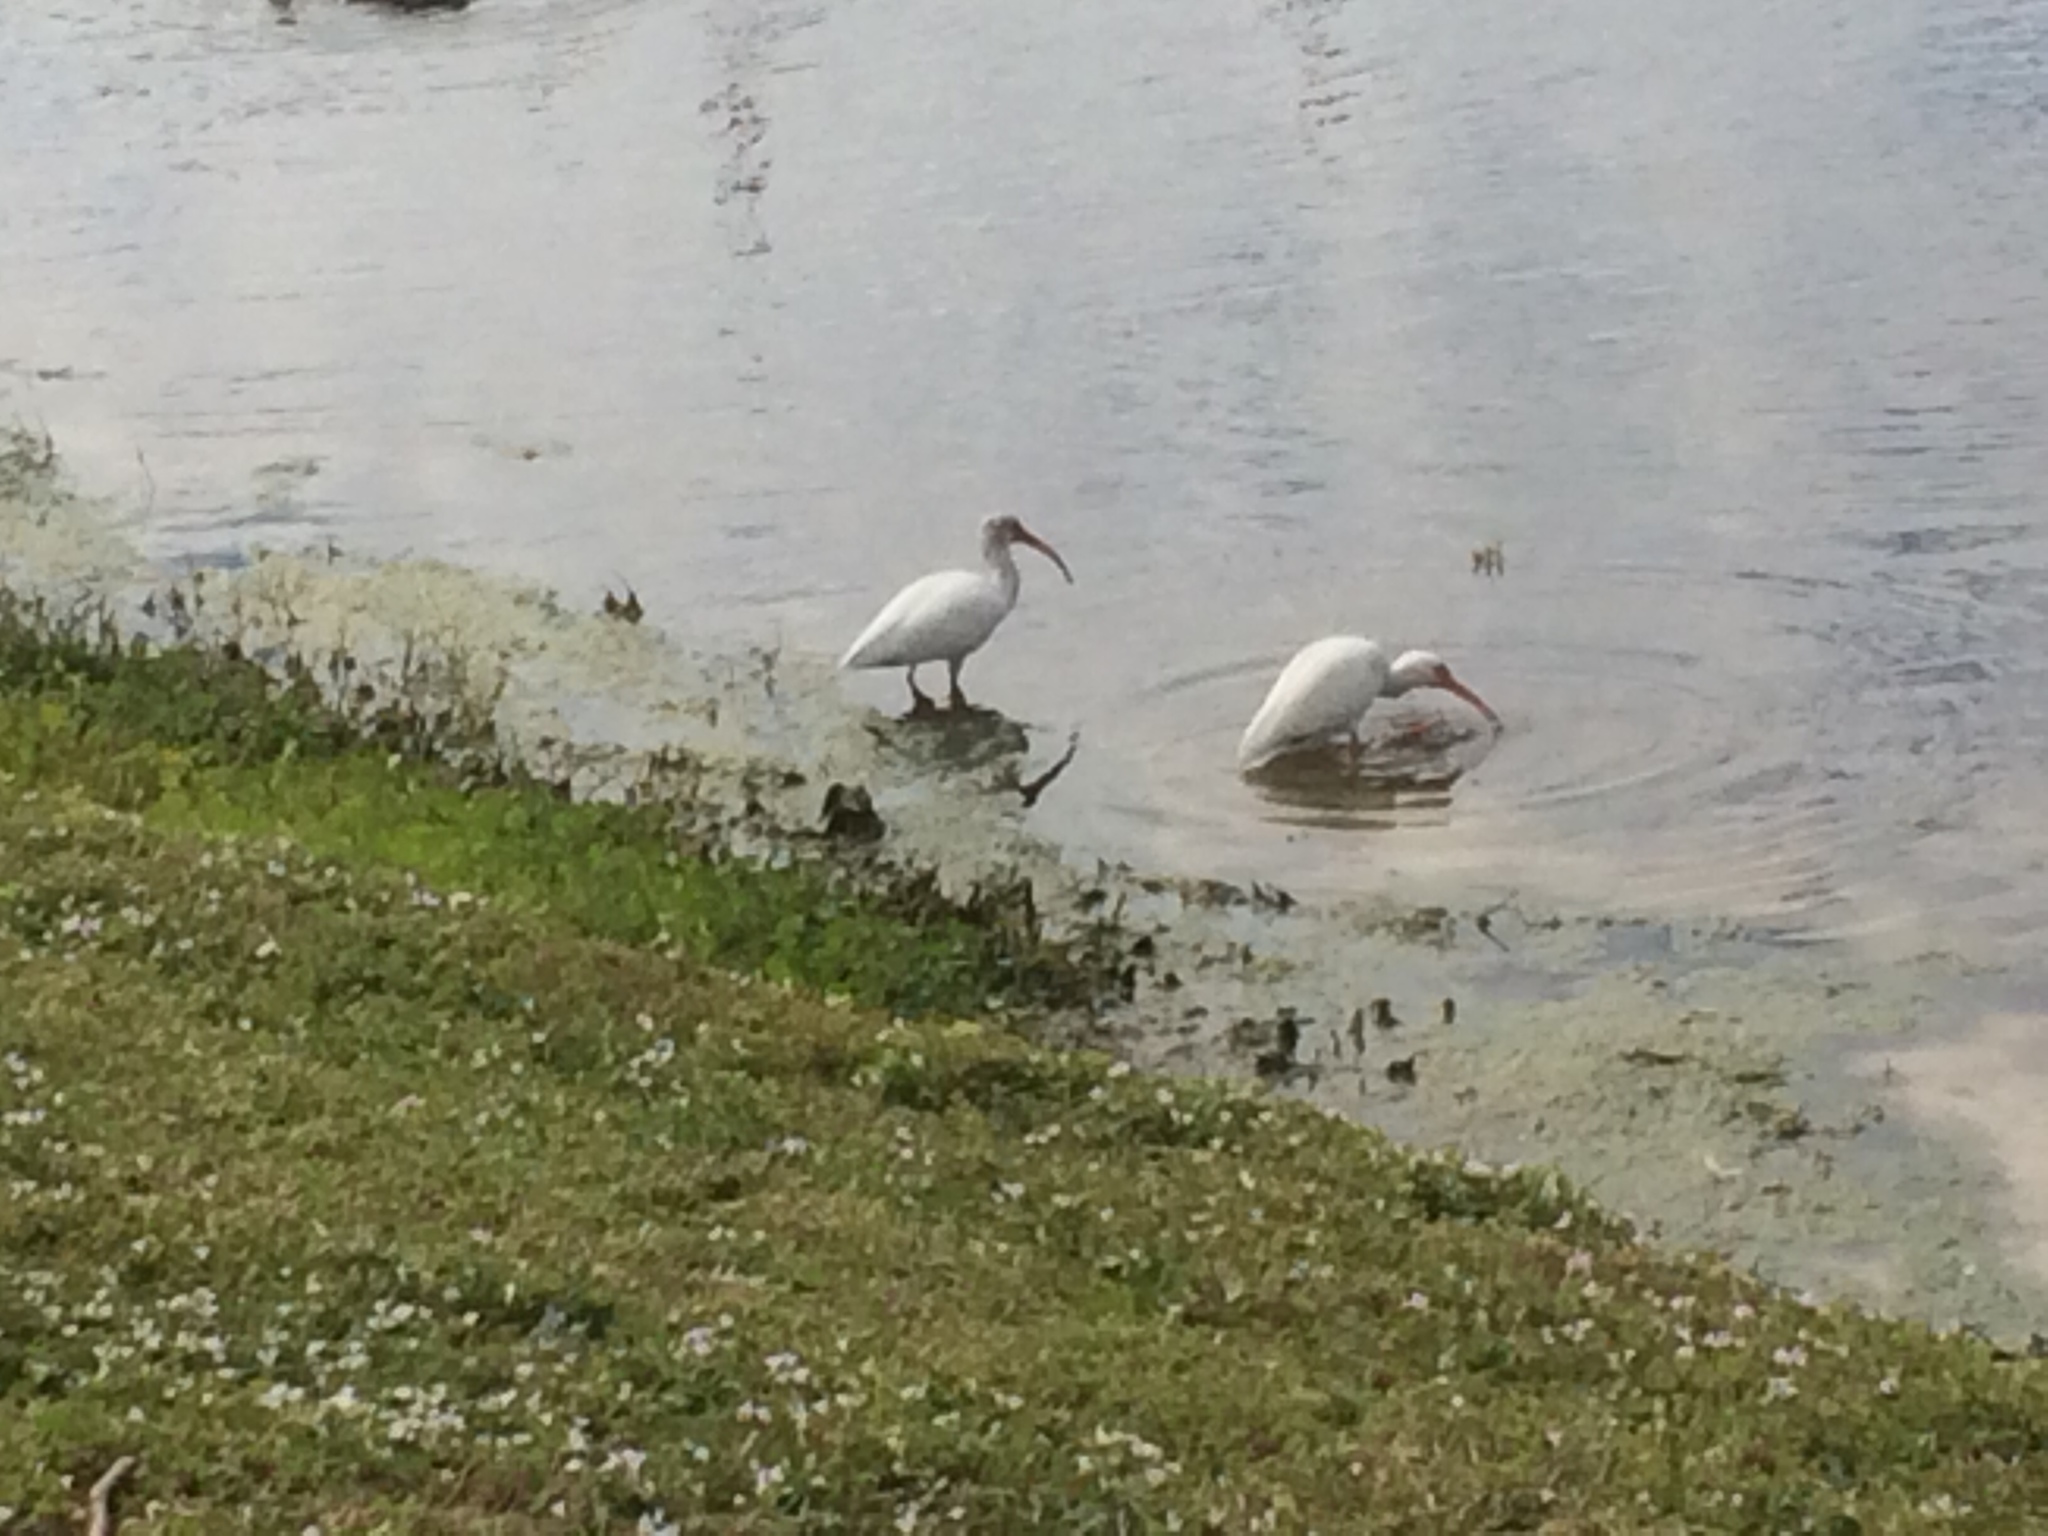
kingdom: Animalia
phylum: Chordata
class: Aves
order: Pelecaniformes
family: Threskiornithidae
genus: Eudocimus
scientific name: Eudocimus albus
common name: White ibis
